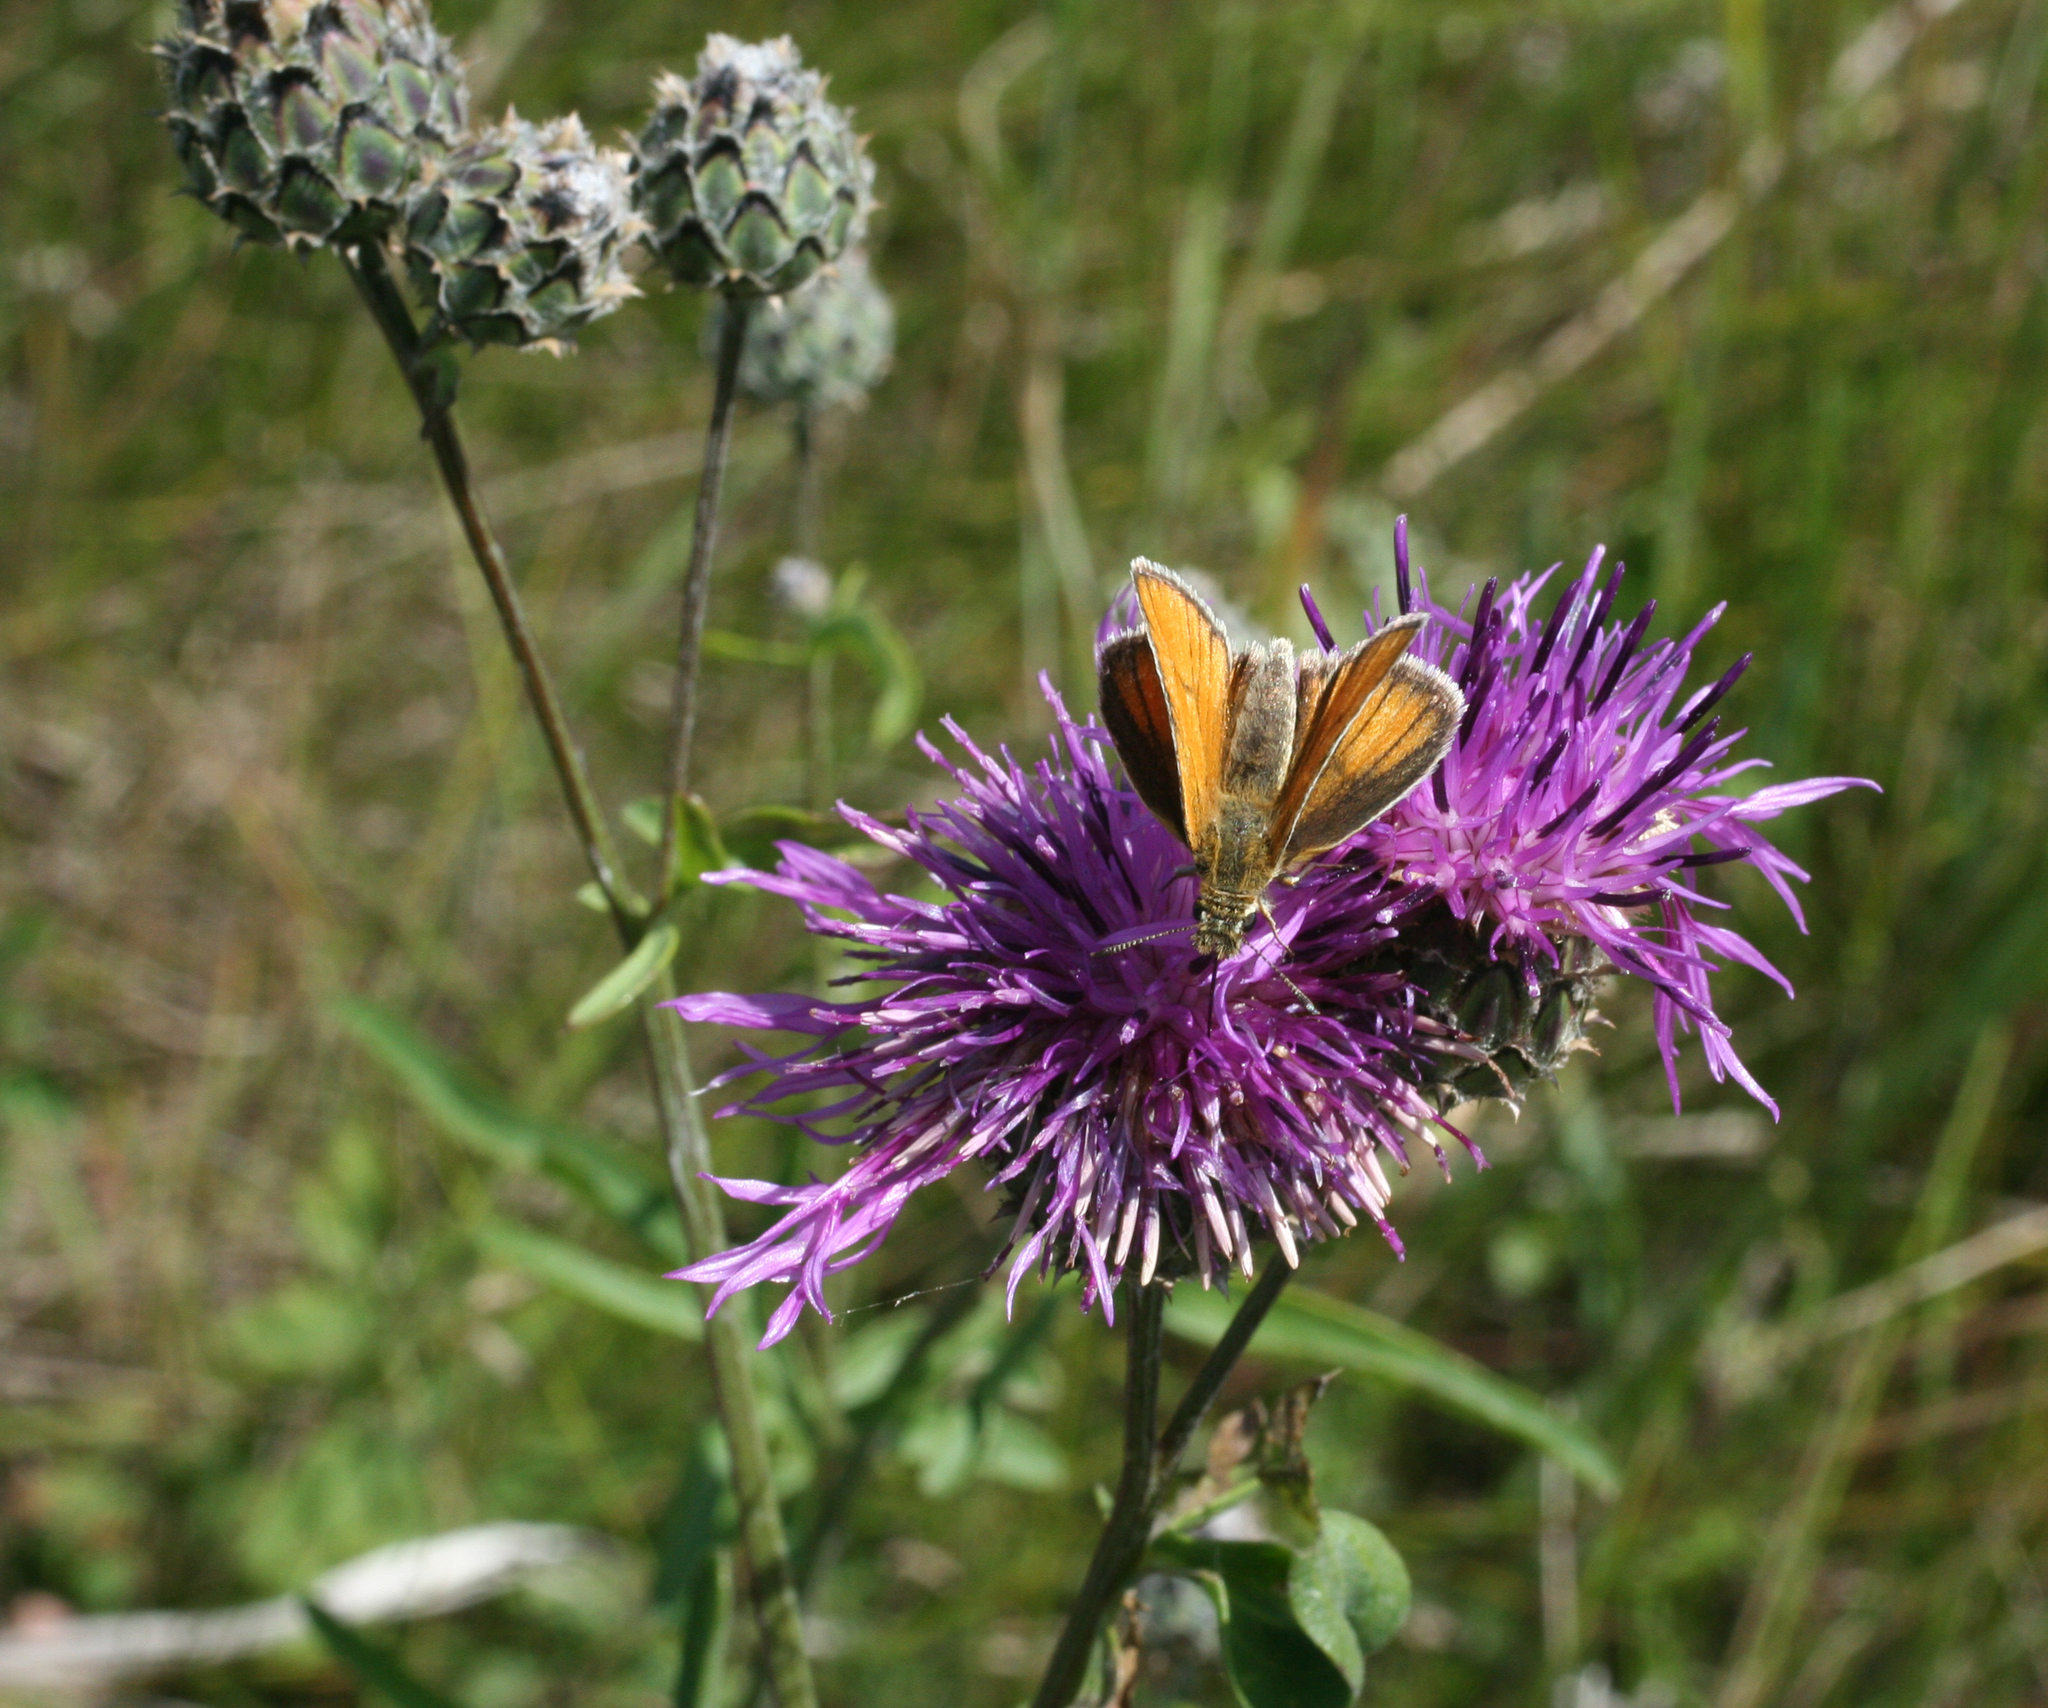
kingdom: Plantae
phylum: Tracheophyta
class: Magnoliopsida
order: Asterales
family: Asteraceae
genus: Centaurea
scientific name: Centaurea scabiosa
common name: Greater knapweed
